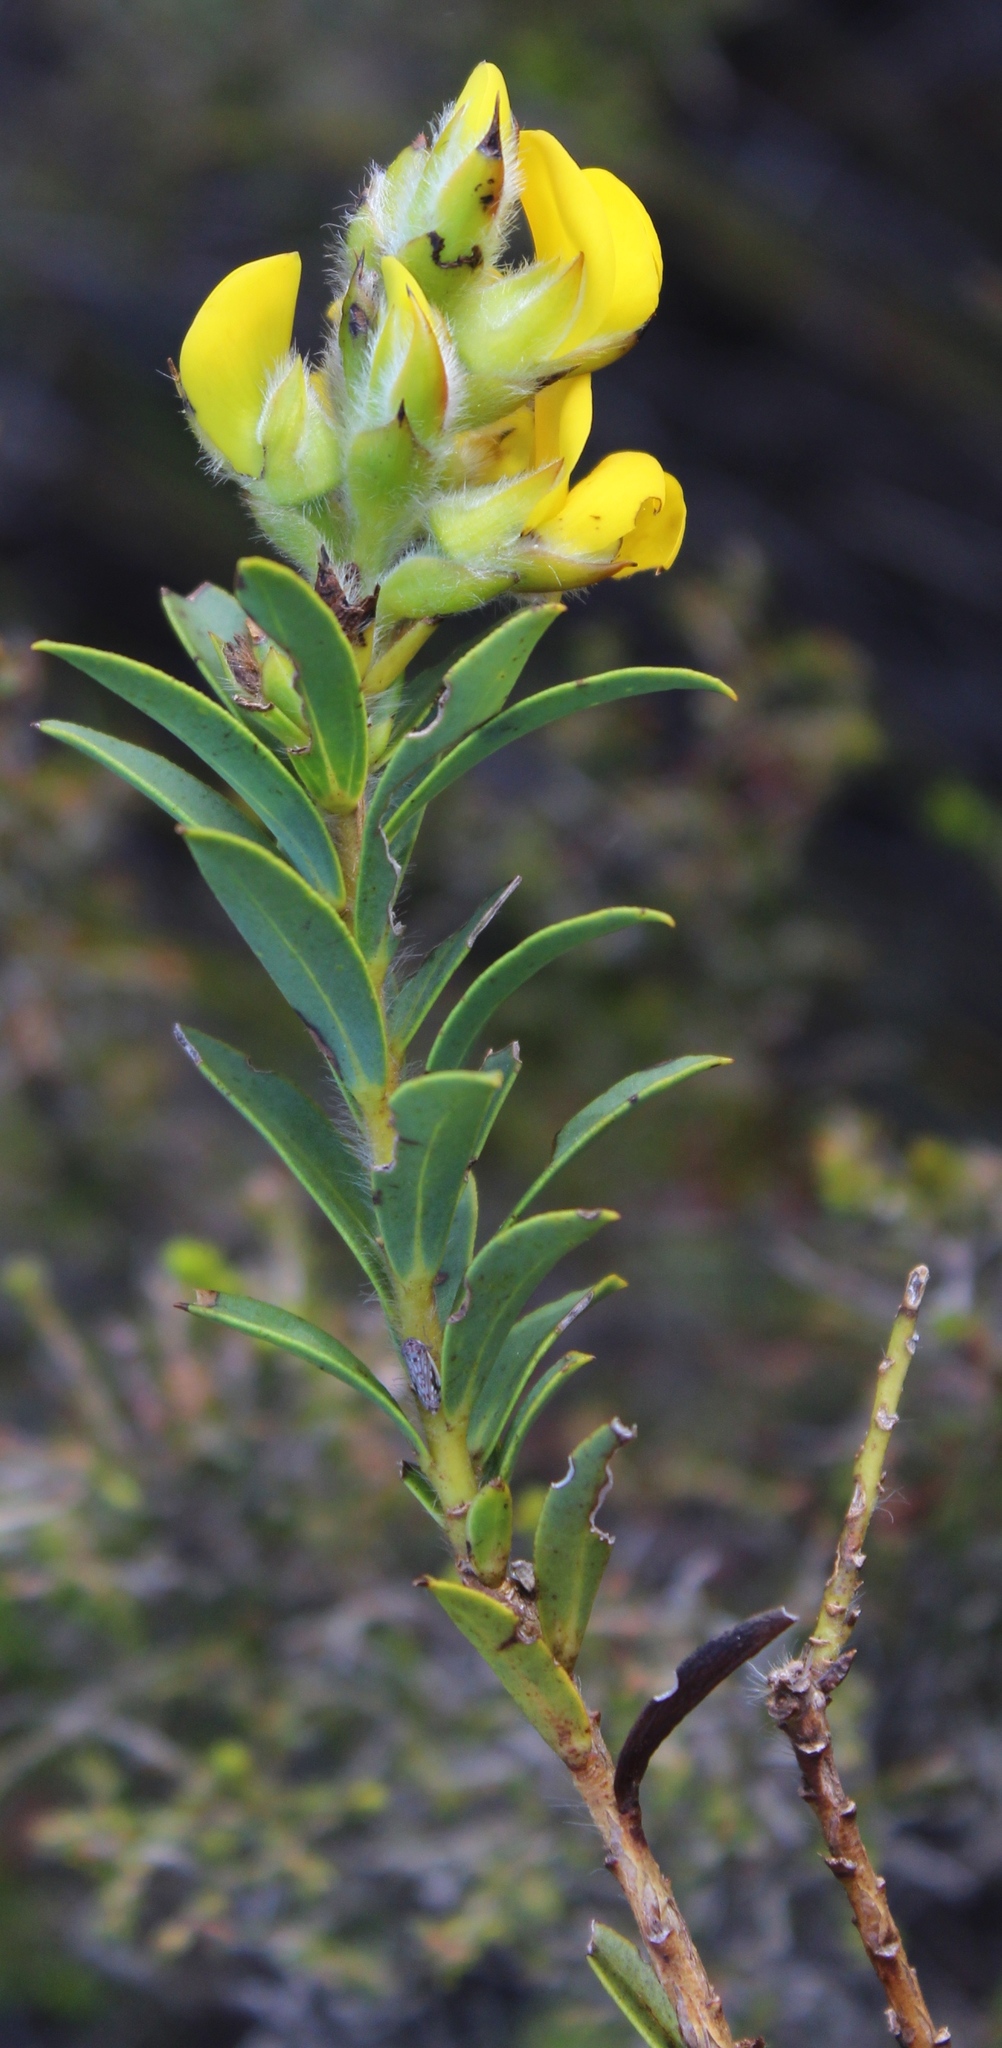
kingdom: Plantae
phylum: Tracheophyta
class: Magnoliopsida
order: Fabales
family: Fabaceae
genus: Liparia
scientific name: Liparia hirsuta
